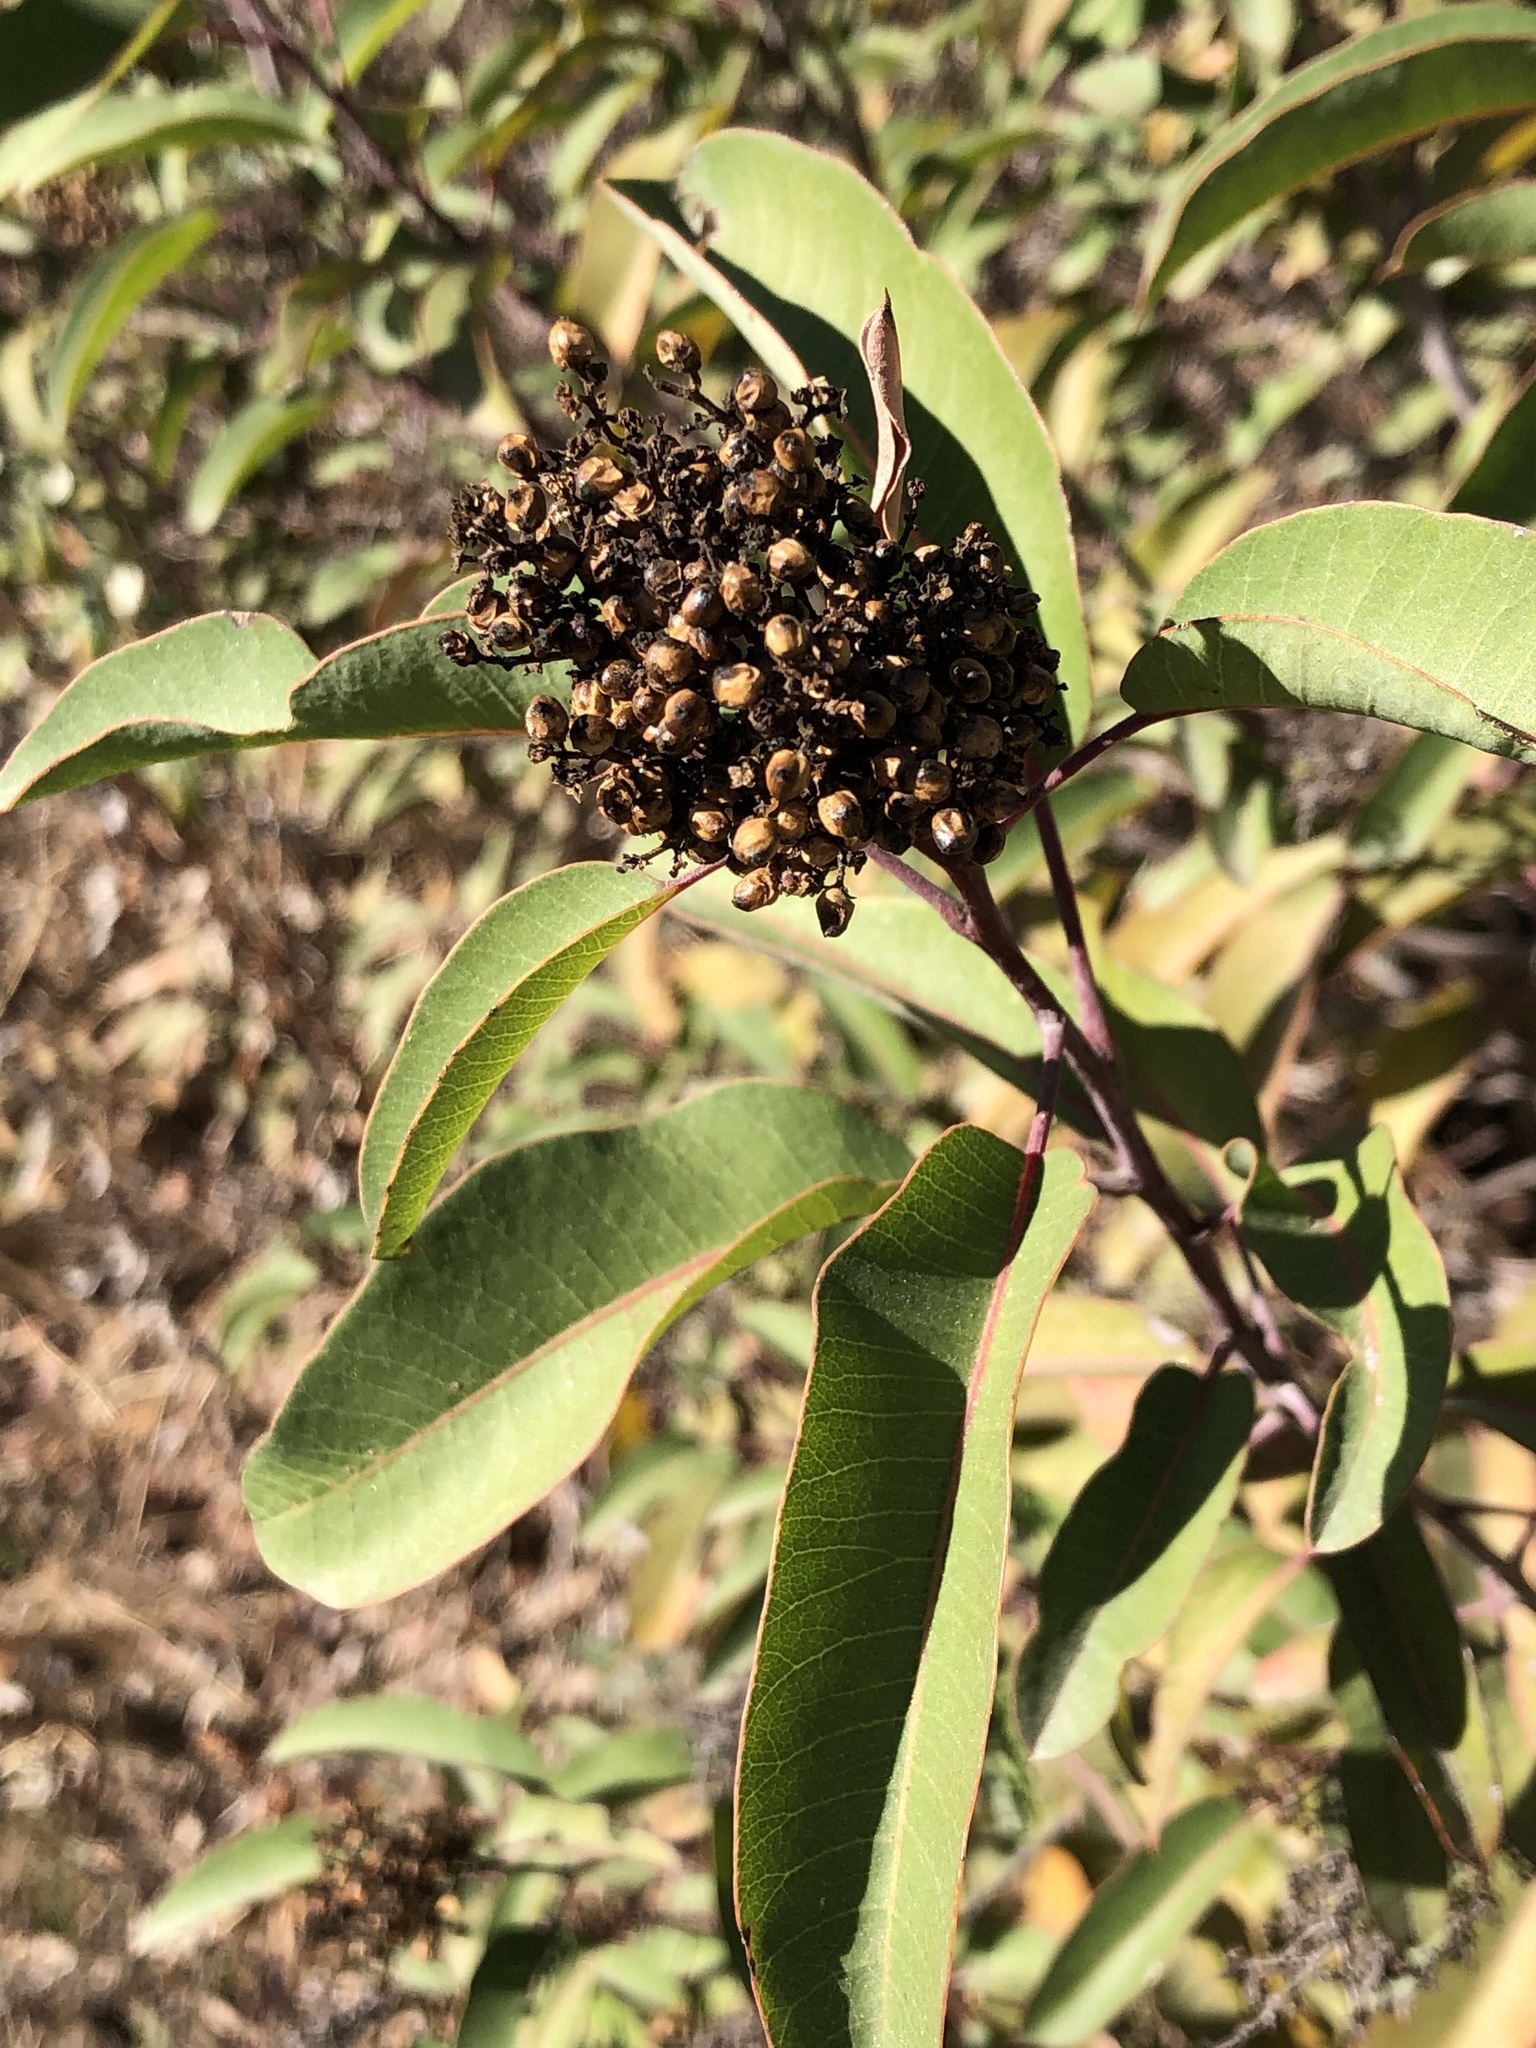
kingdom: Plantae
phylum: Tracheophyta
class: Magnoliopsida
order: Sapindales
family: Anacardiaceae
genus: Malosma
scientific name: Malosma laurina
